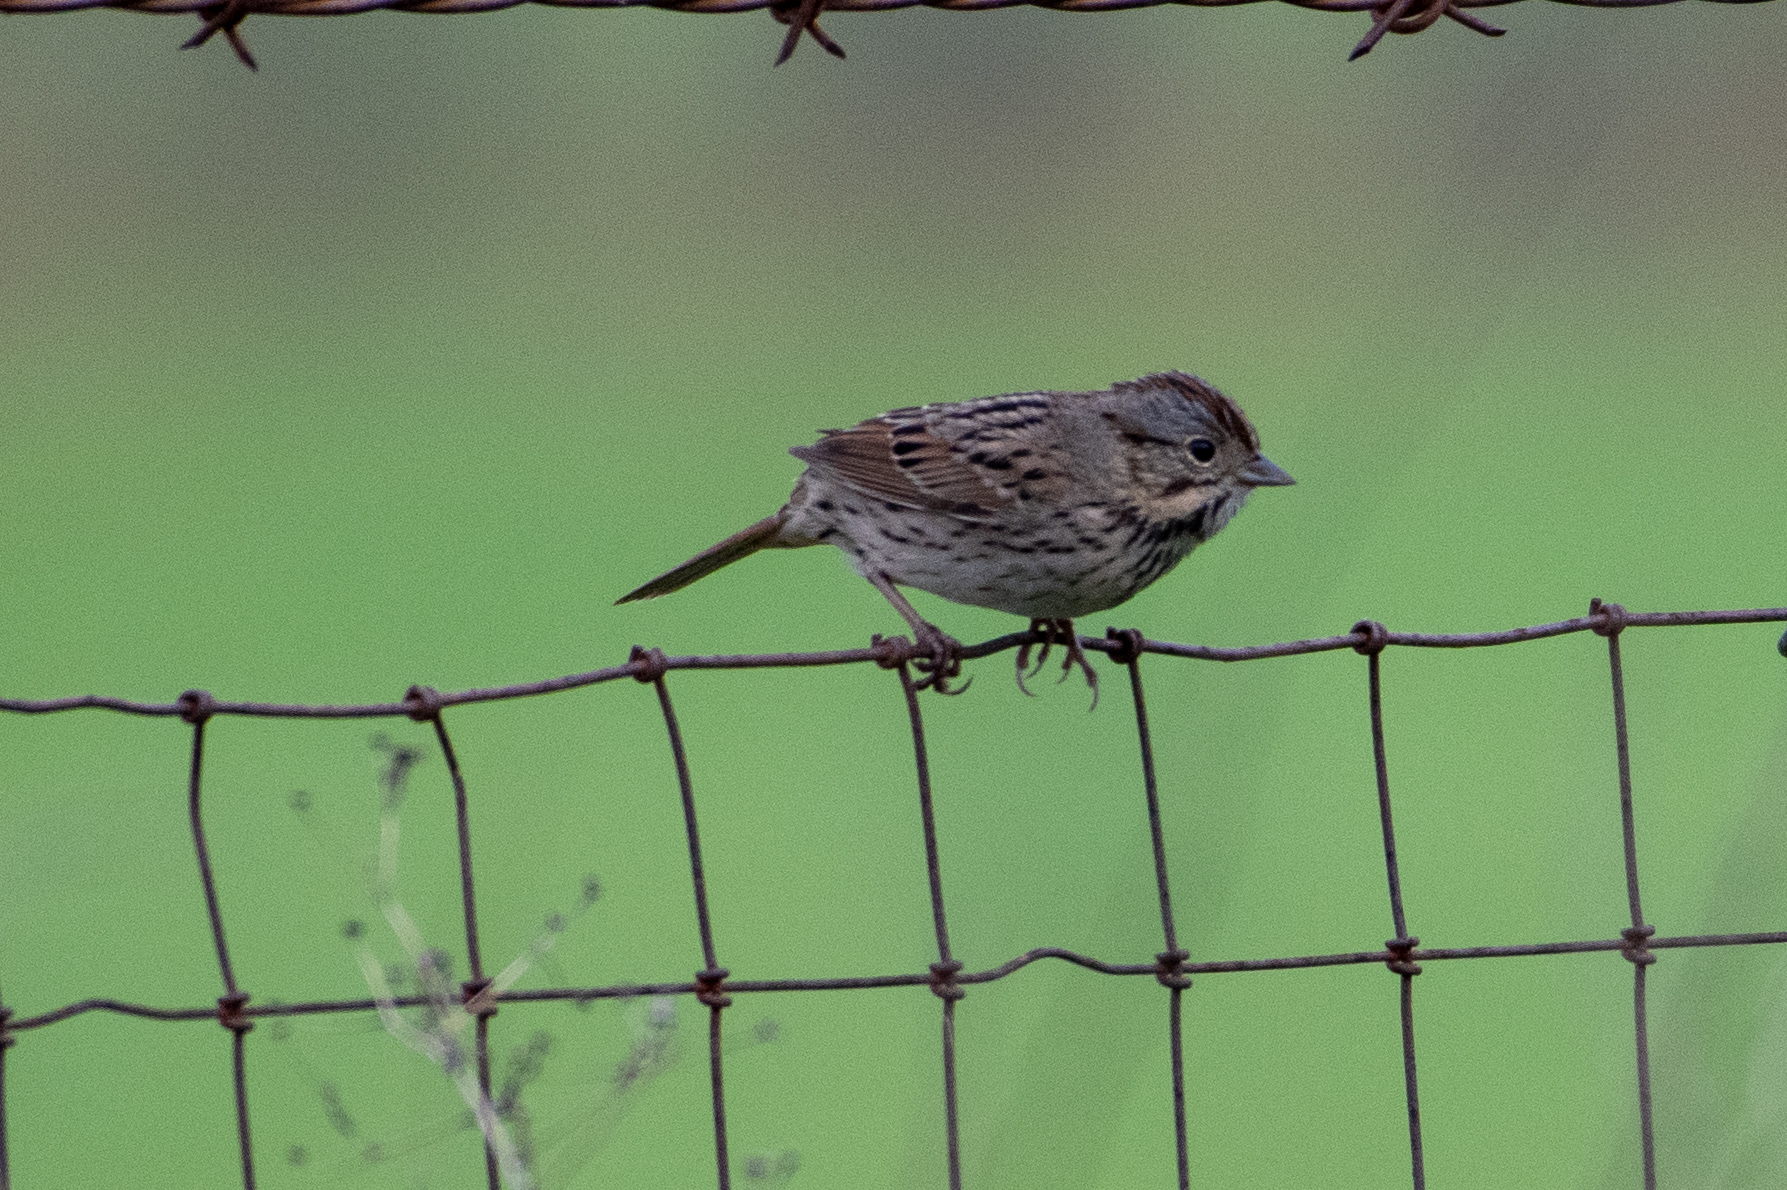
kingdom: Animalia
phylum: Chordata
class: Aves
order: Passeriformes
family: Passerellidae
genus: Melospiza
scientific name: Melospiza lincolnii
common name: Lincoln's sparrow
